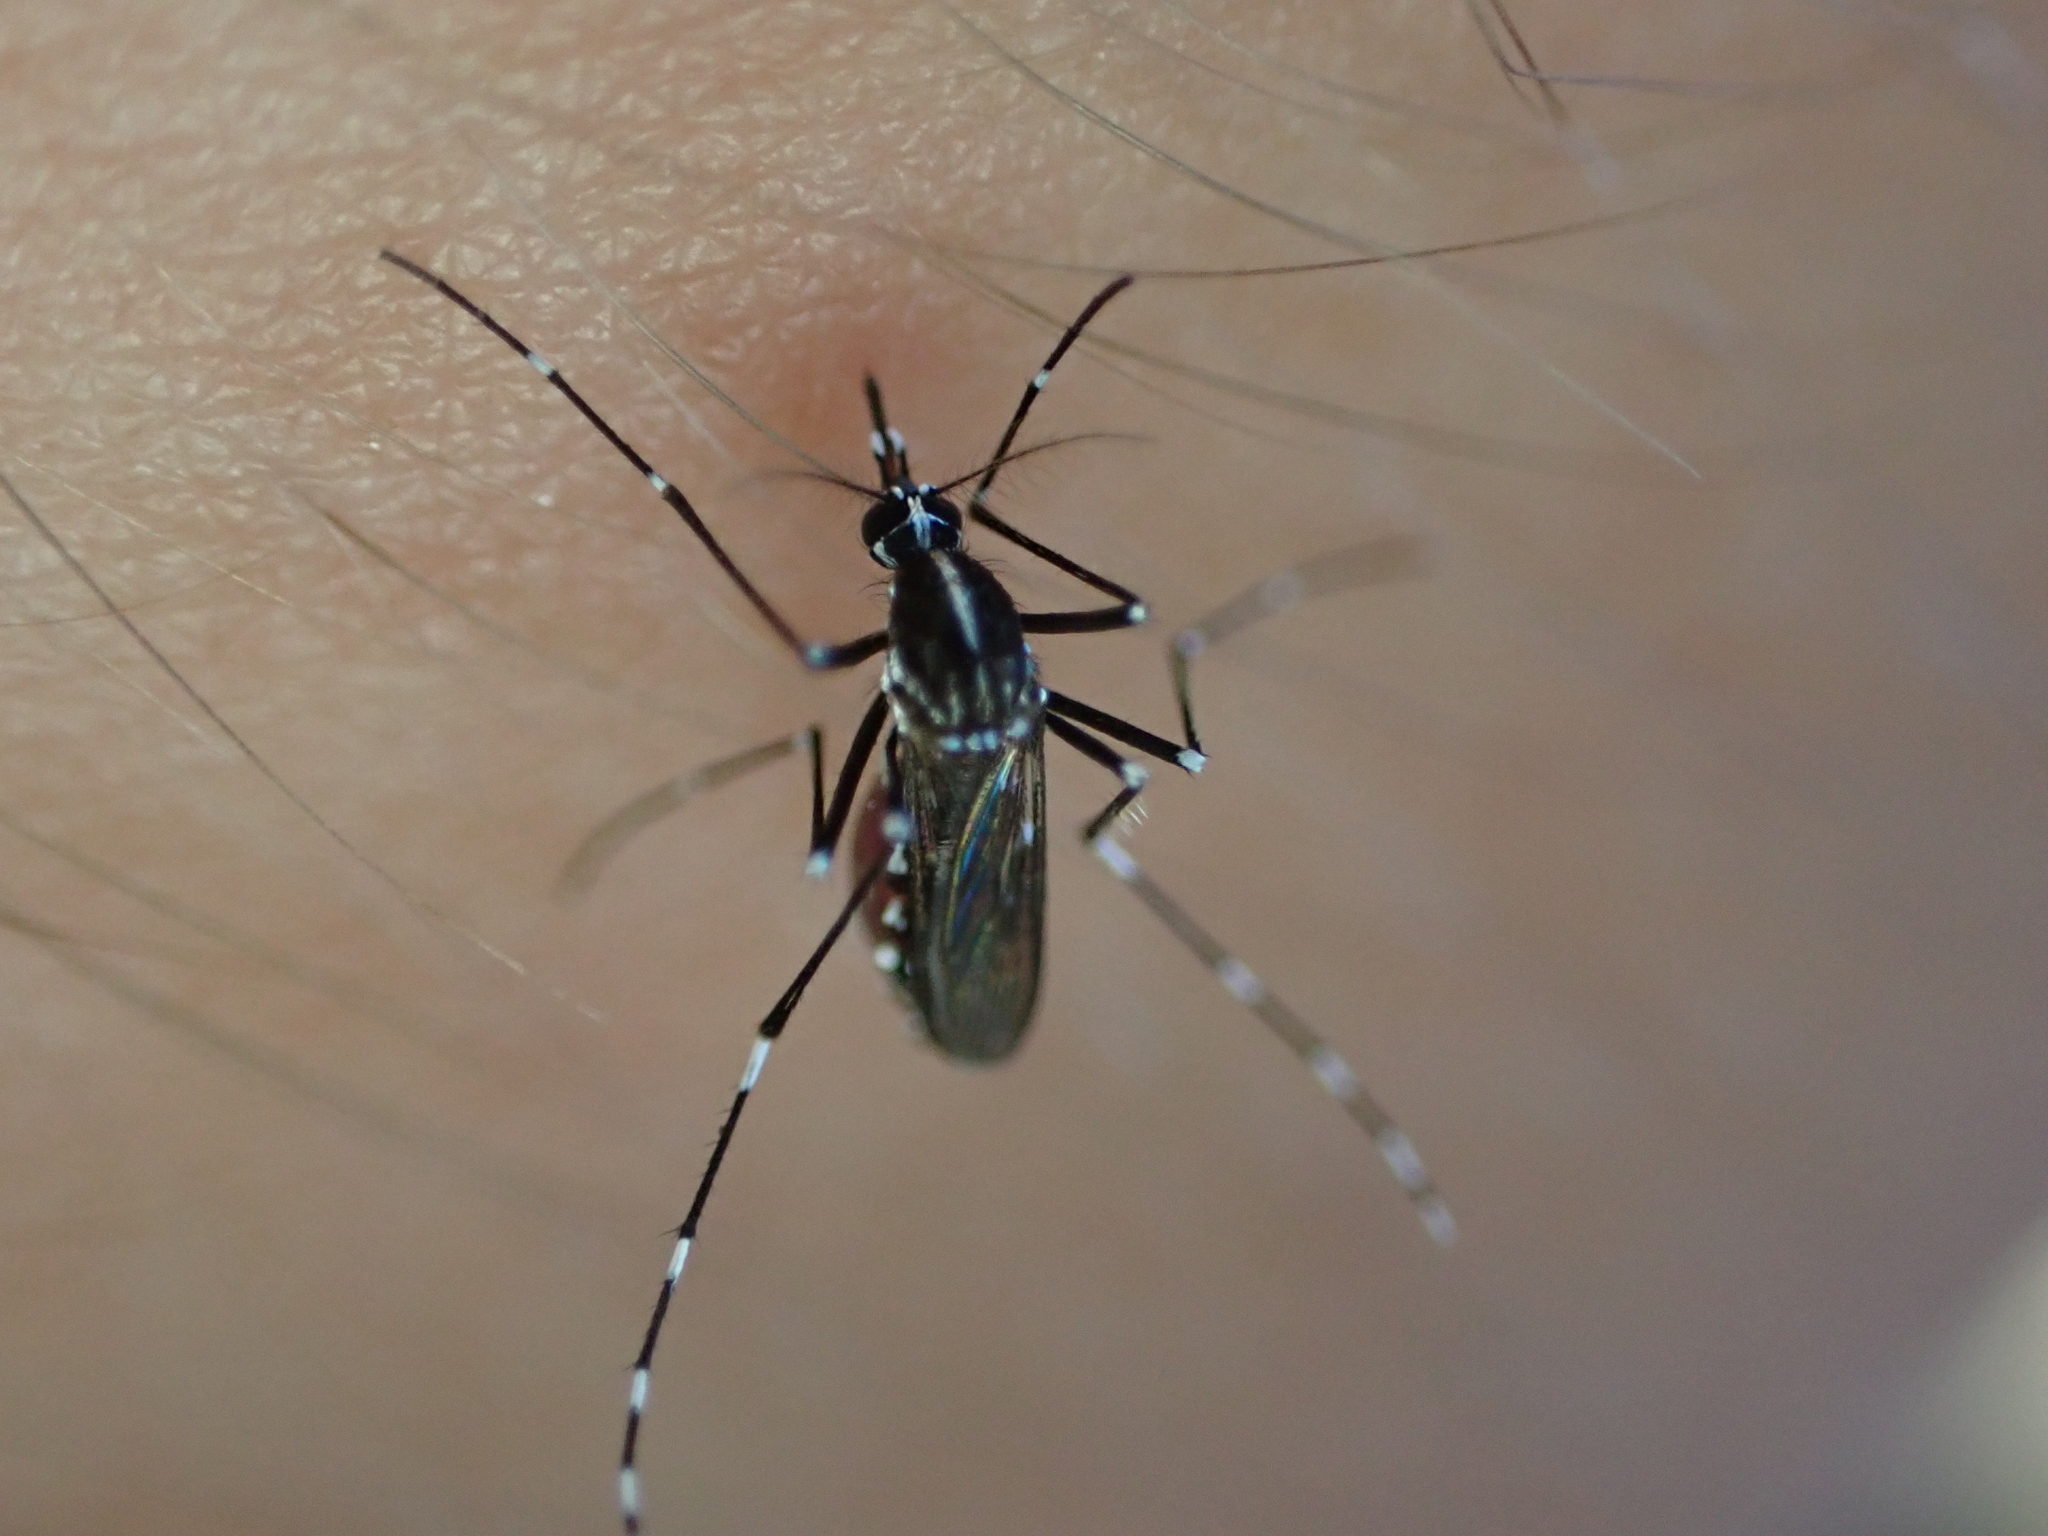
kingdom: Animalia
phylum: Arthropoda
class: Insecta
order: Diptera
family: Culicidae
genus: Aedes
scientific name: Aedes albopictus
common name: Tiger mosquito
